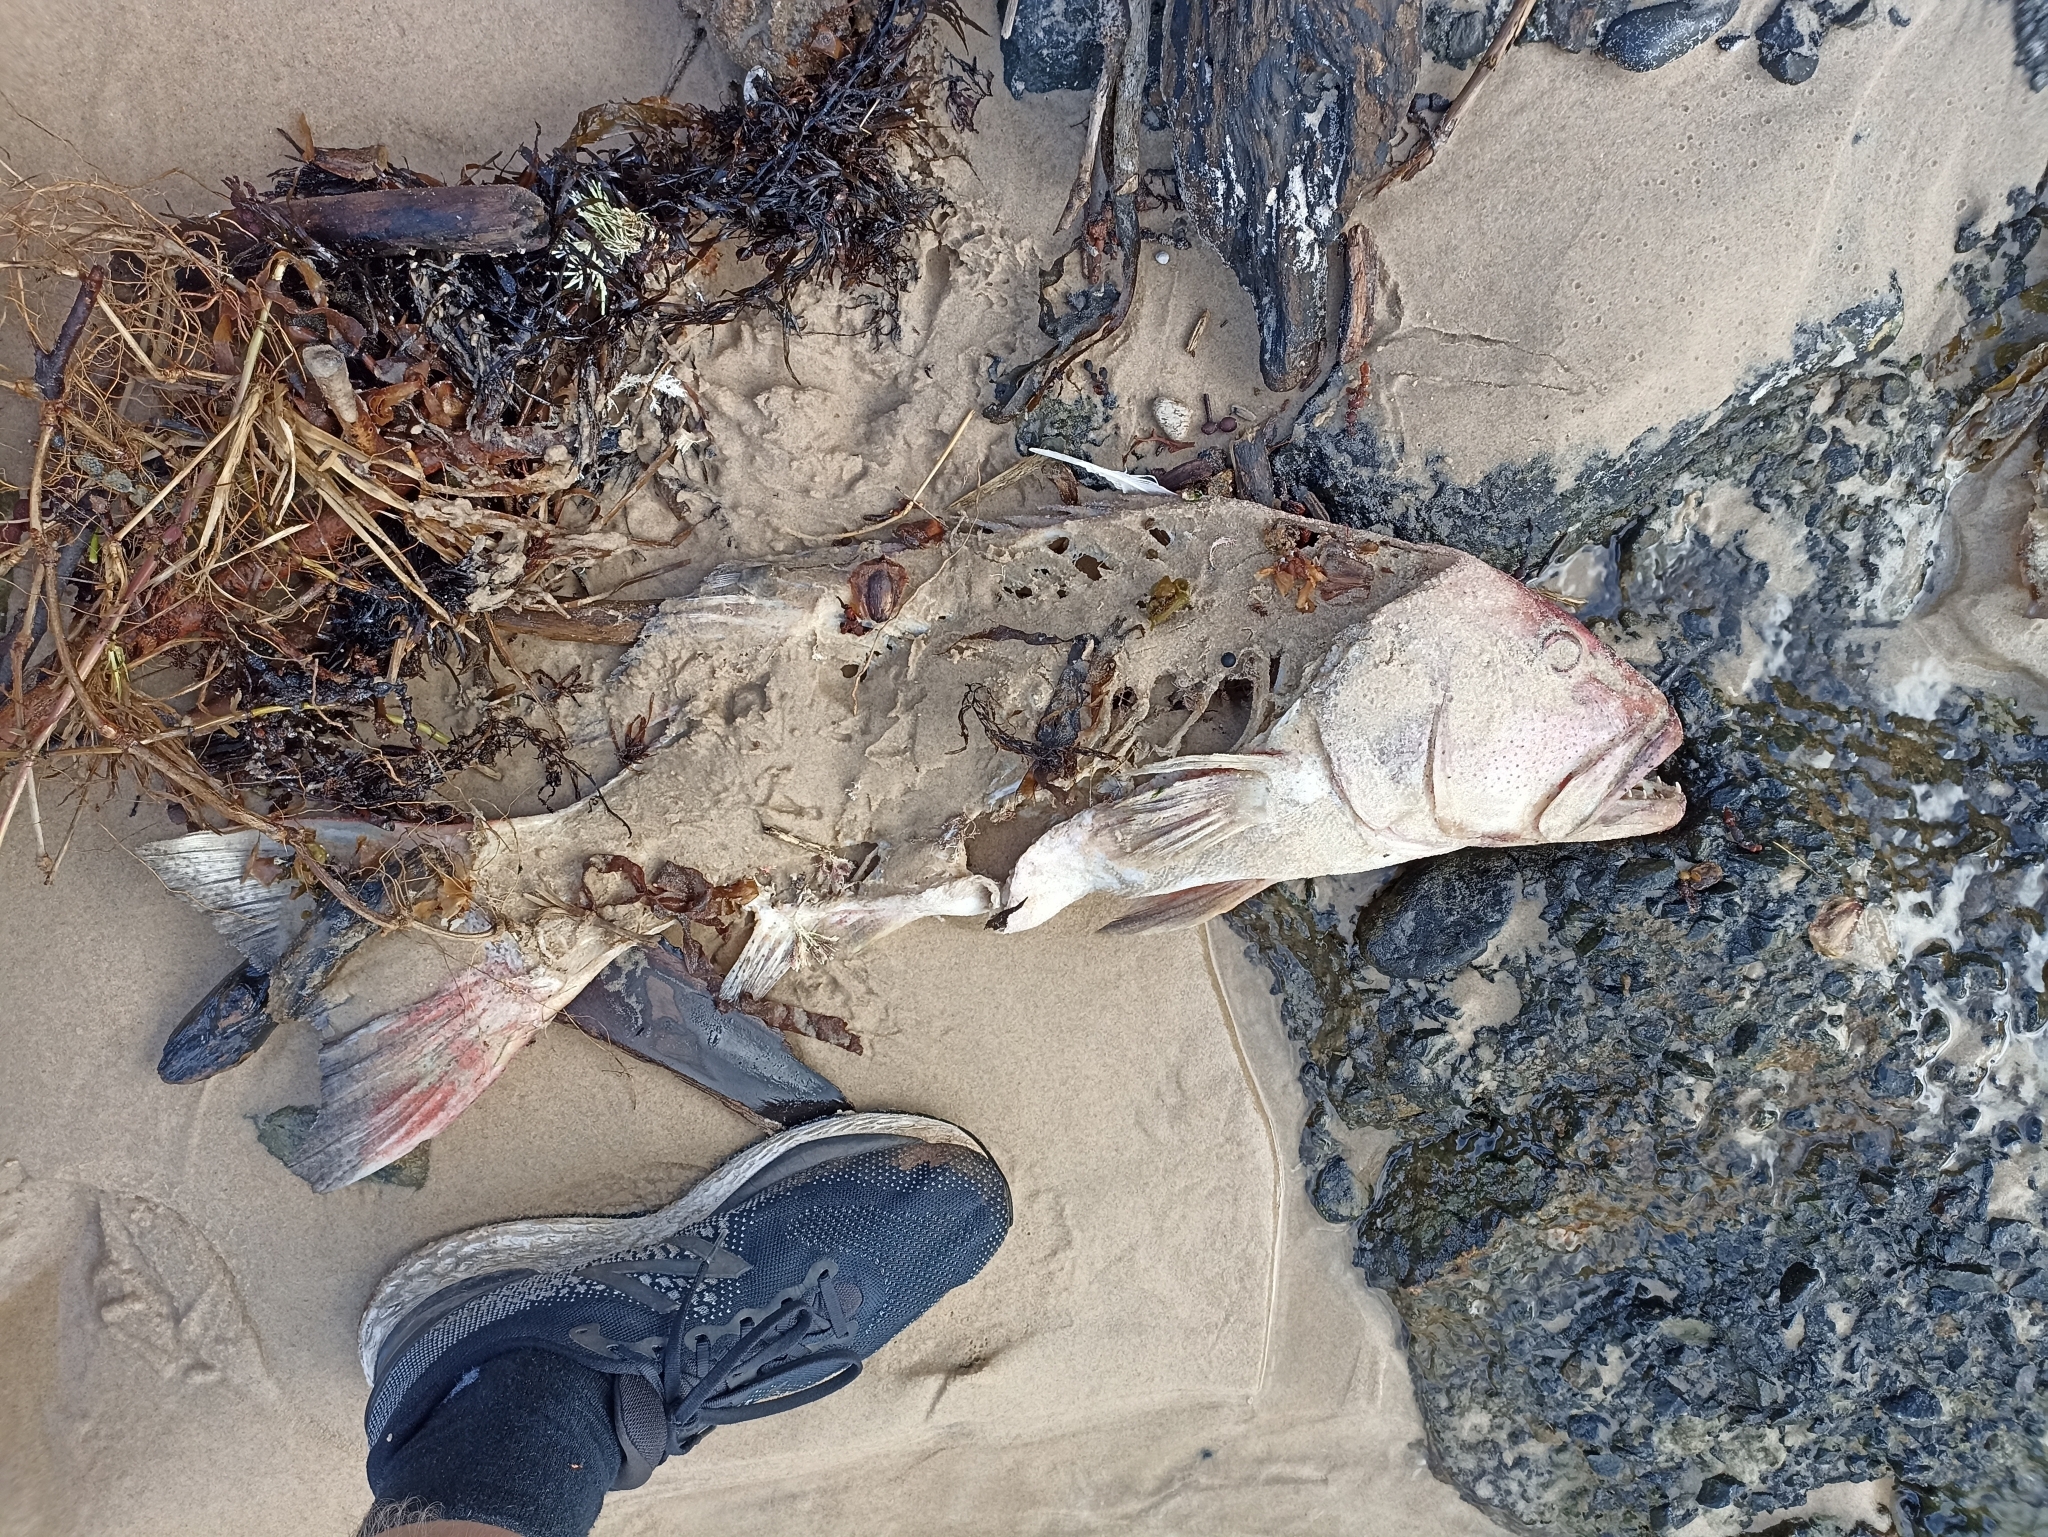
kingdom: Animalia
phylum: Chordata
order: Perciformes
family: Serranidae
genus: Plectropomus
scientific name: Plectropomus leopardus
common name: Coral trout
